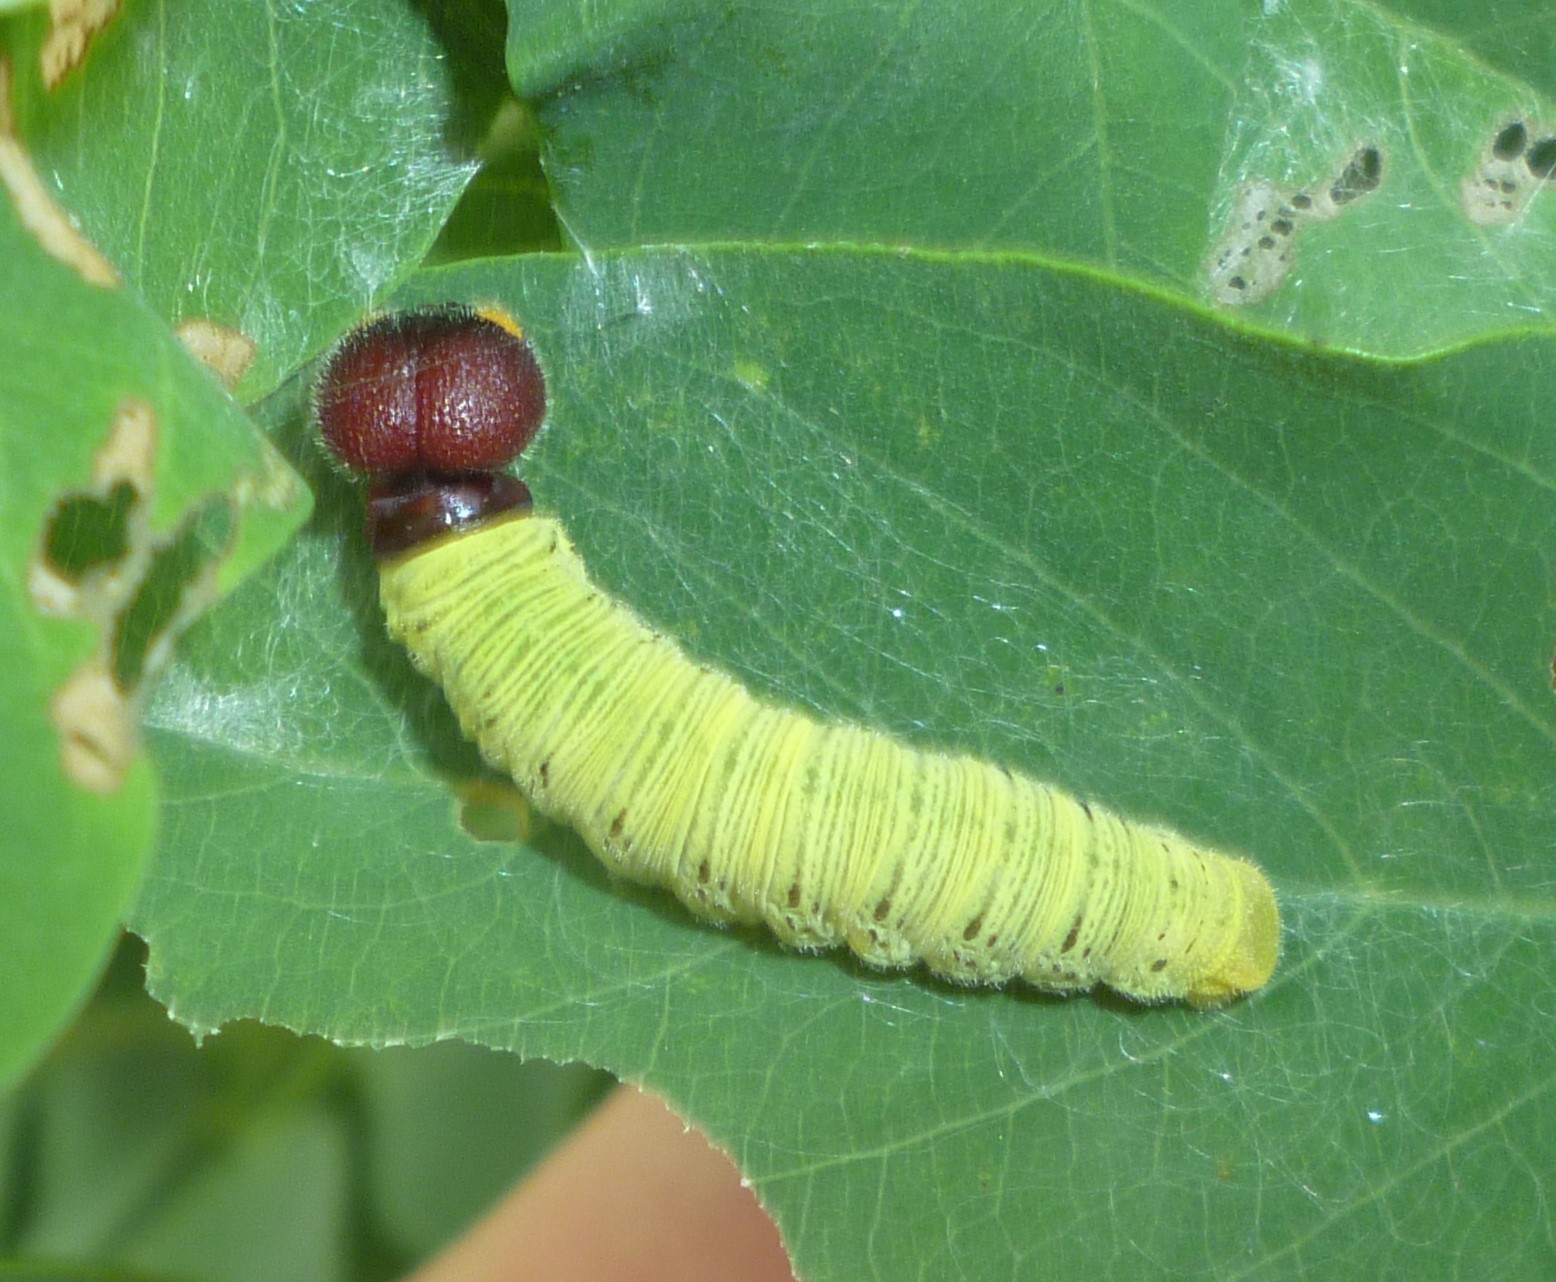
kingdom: Animalia
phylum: Arthropoda
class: Insecta
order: Lepidoptera
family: Hesperiidae
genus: Epargyreus
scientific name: Epargyreus clarus
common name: Silver-spotted skipper
